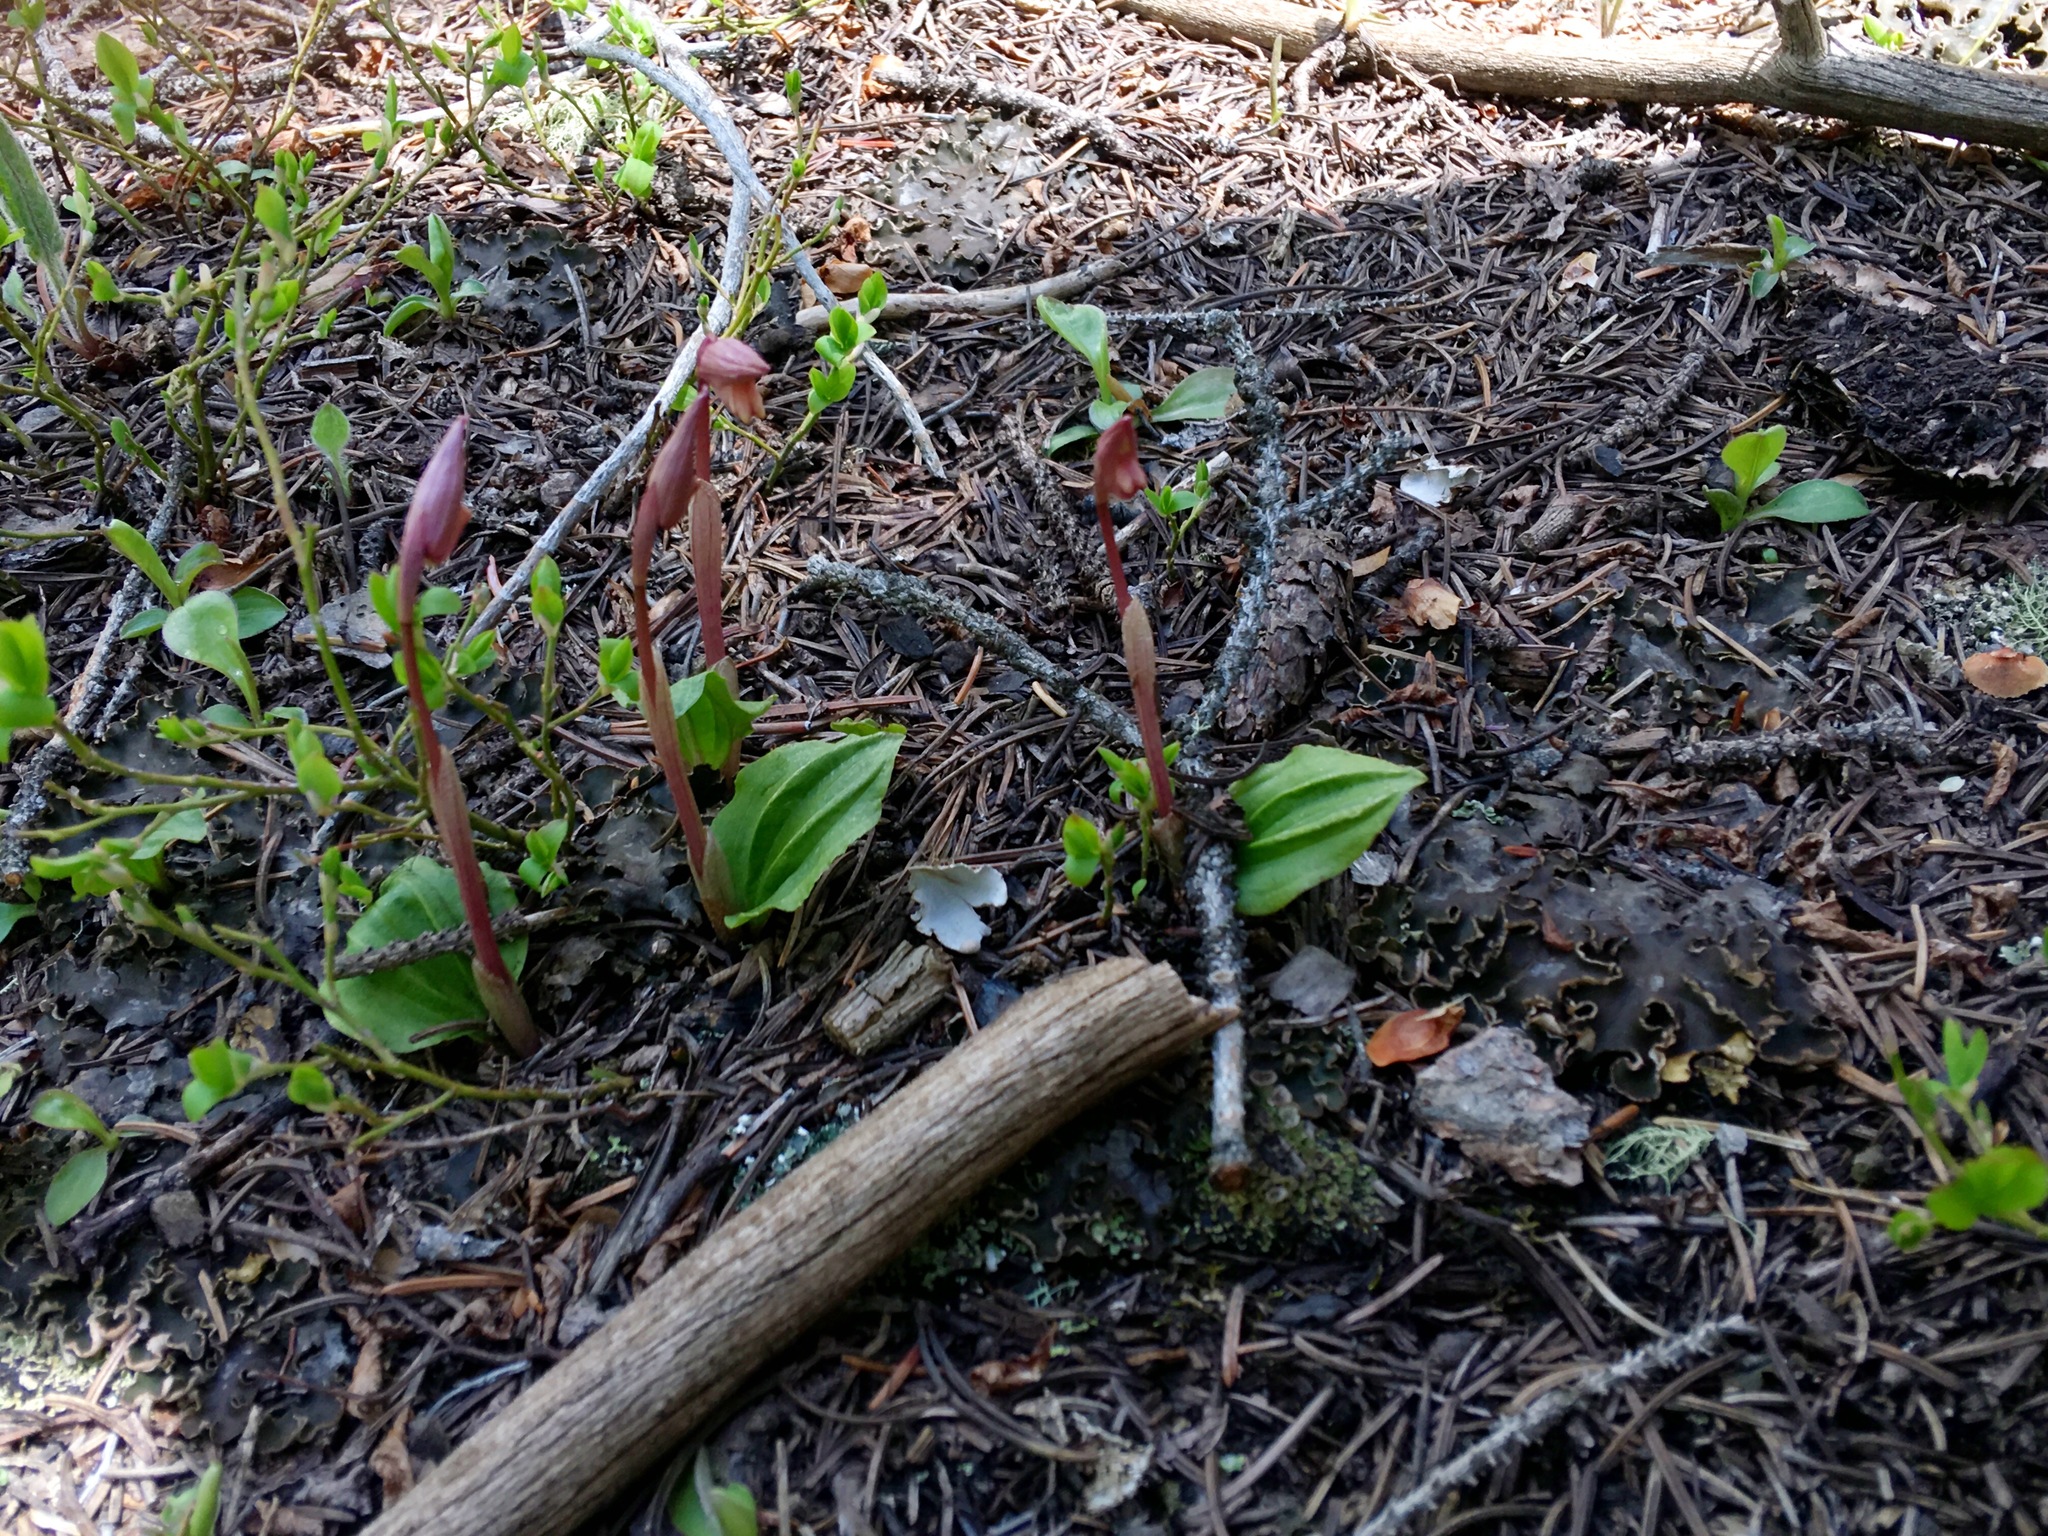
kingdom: Plantae
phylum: Tracheophyta
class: Liliopsida
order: Asparagales
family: Orchidaceae
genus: Calypso
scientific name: Calypso bulbosa
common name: Calypso
